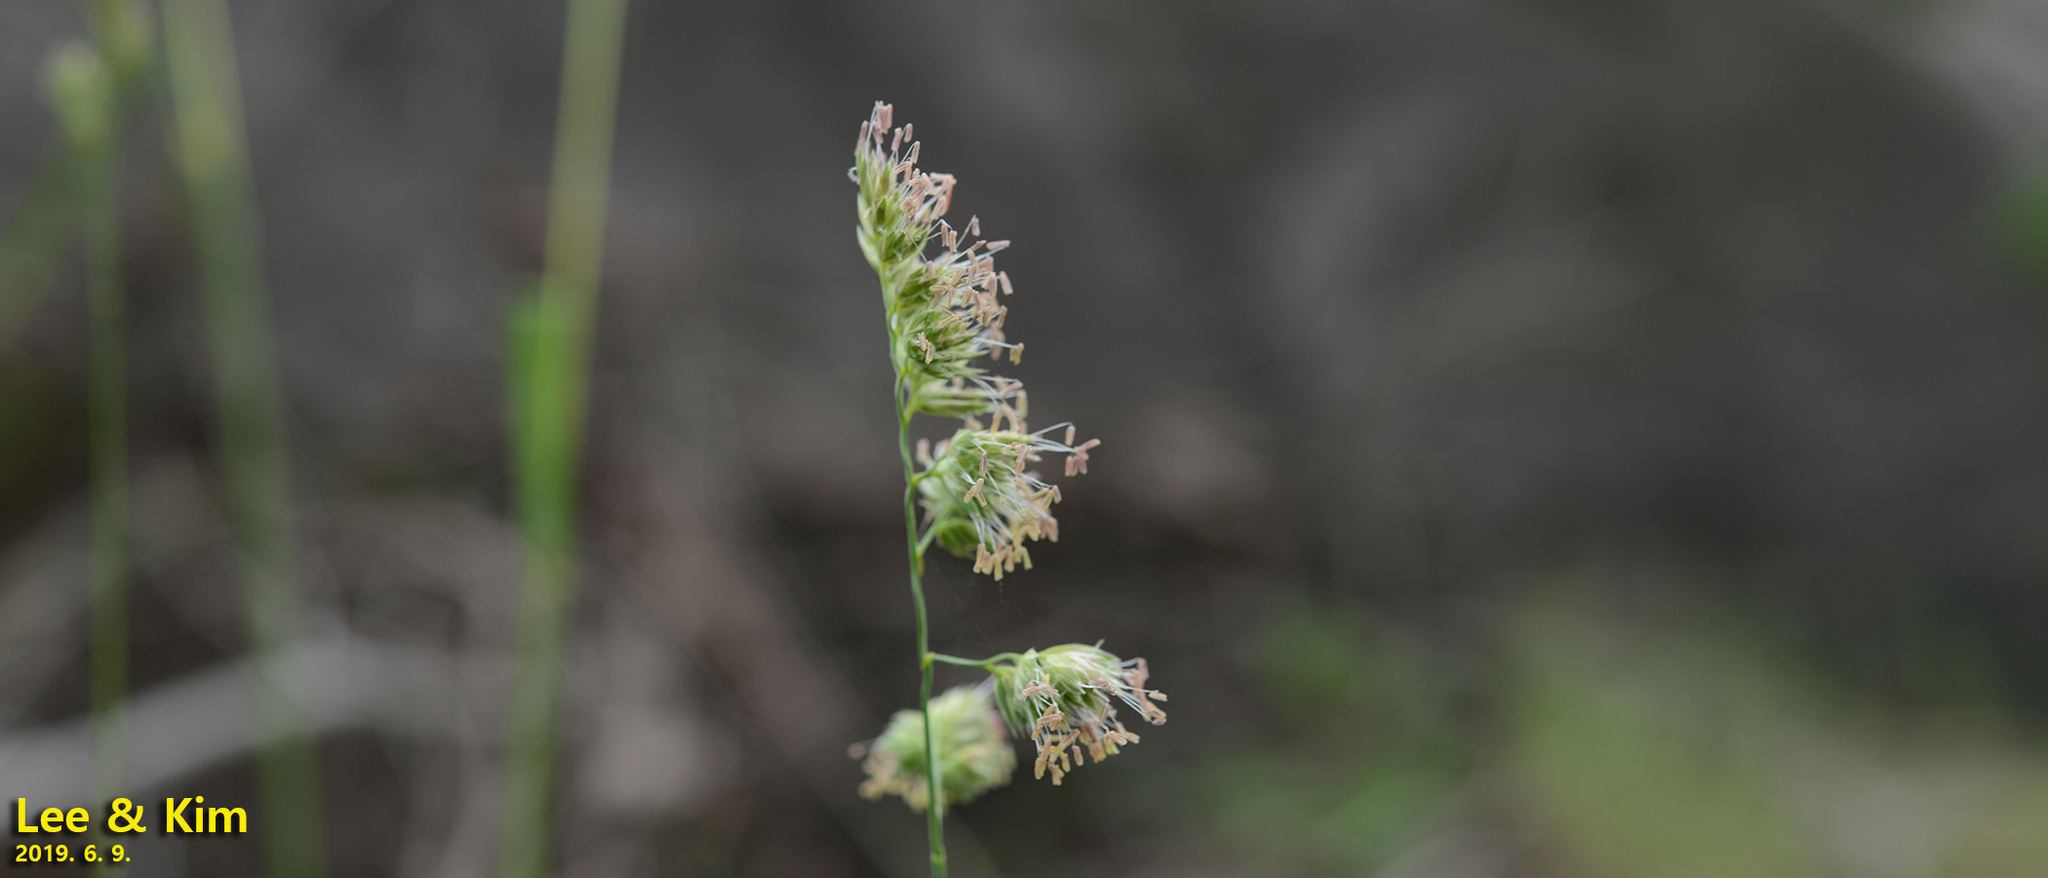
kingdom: Plantae
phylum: Tracheophyta
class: Liliopsida
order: Poales
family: Poaceae
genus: Dactylis
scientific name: Dactylis glomerata
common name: Orchardgrass
